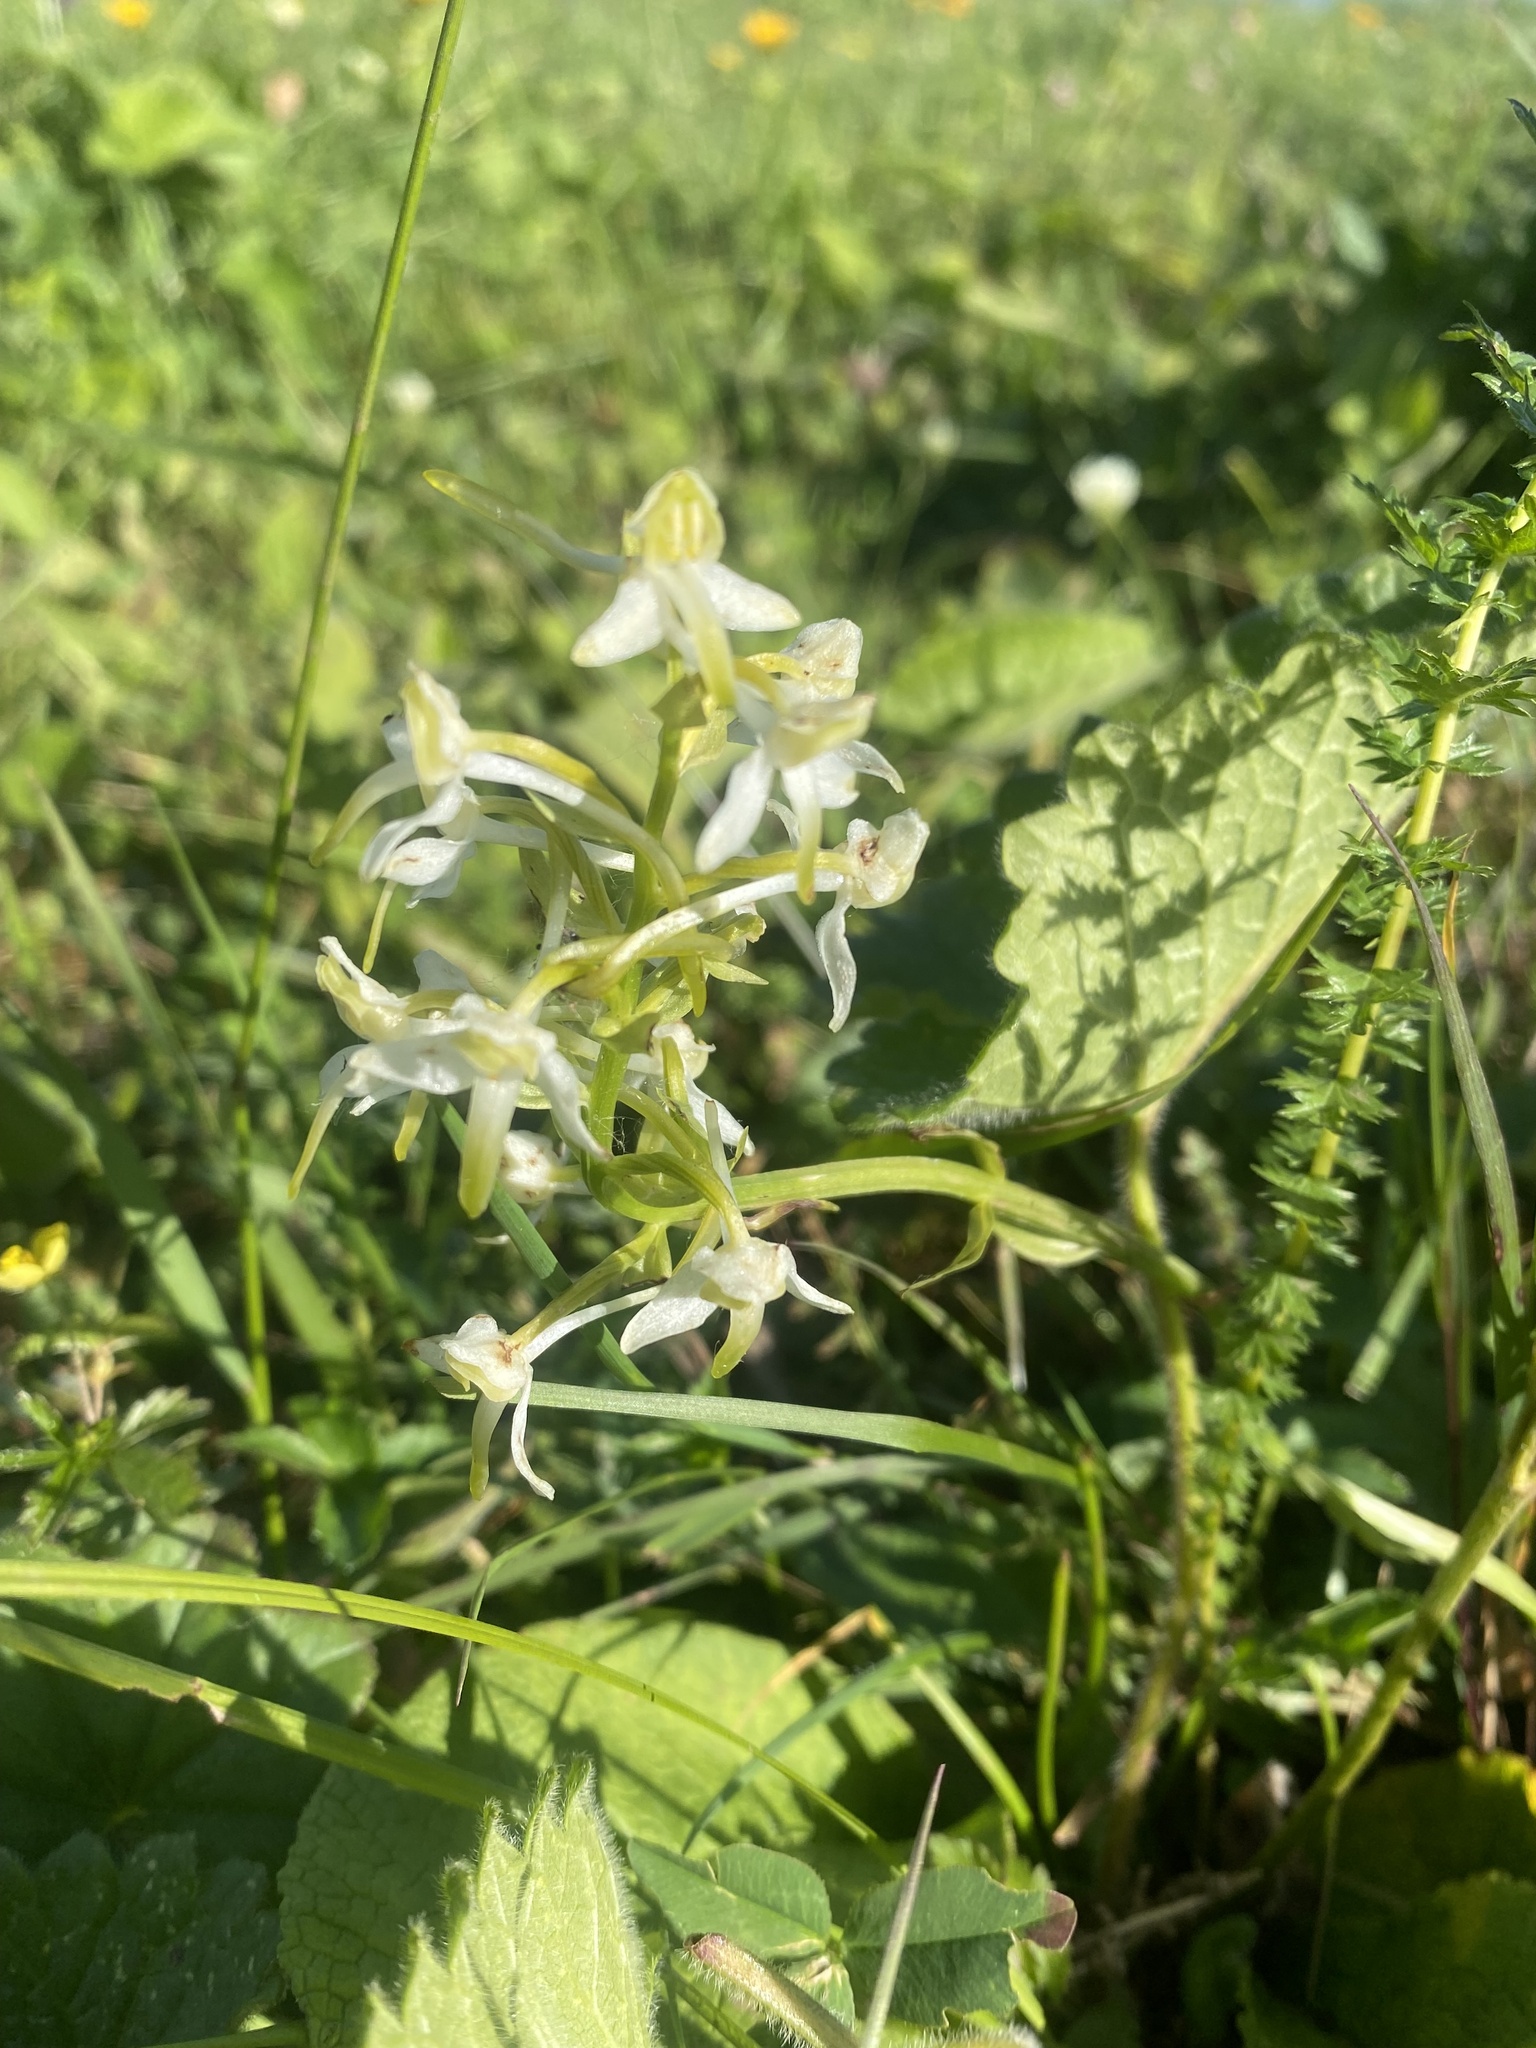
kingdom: Plantae
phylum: Tracheophyta
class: Liliopsida
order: Asparagales
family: Orchidaceae
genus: Platanthera
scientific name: Platanthera chlorantha
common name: Greater butterfly-orchid
